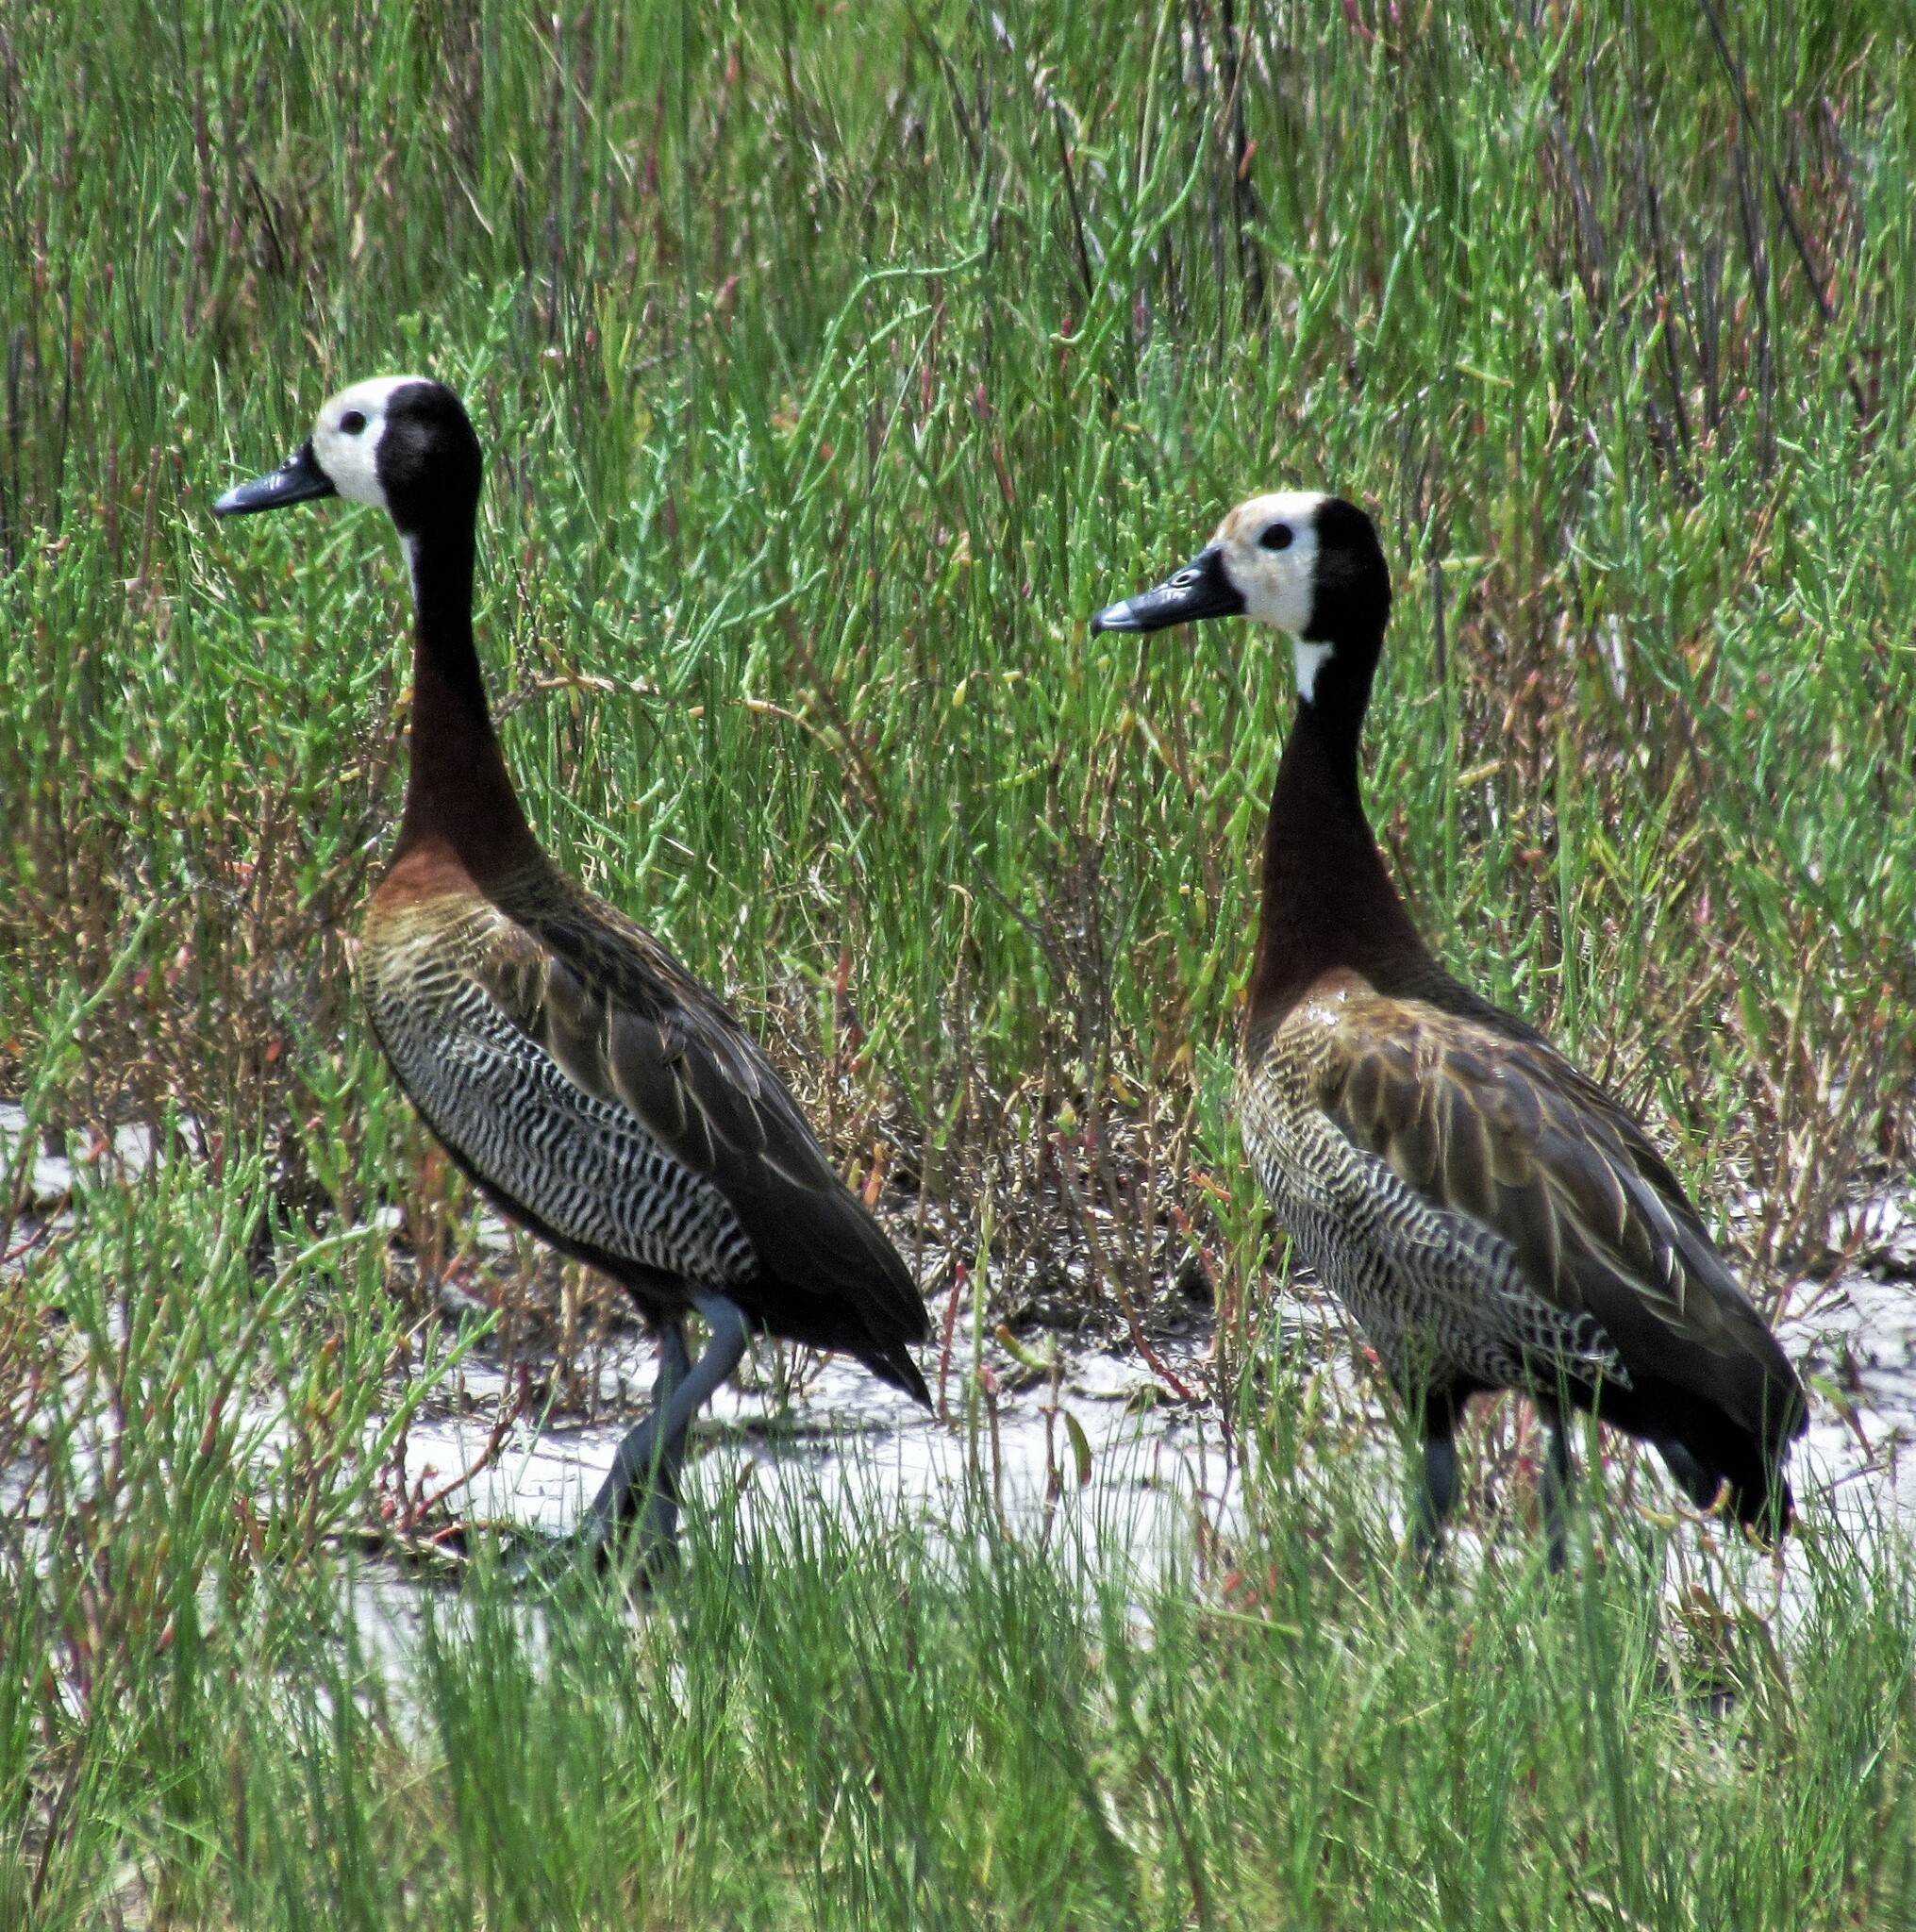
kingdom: Animalia
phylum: Chordata
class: Aves
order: Anseriformes
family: Anatidae
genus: Dendrocygna
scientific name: Dendrocygna viduata
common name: White-faced whistling duck
